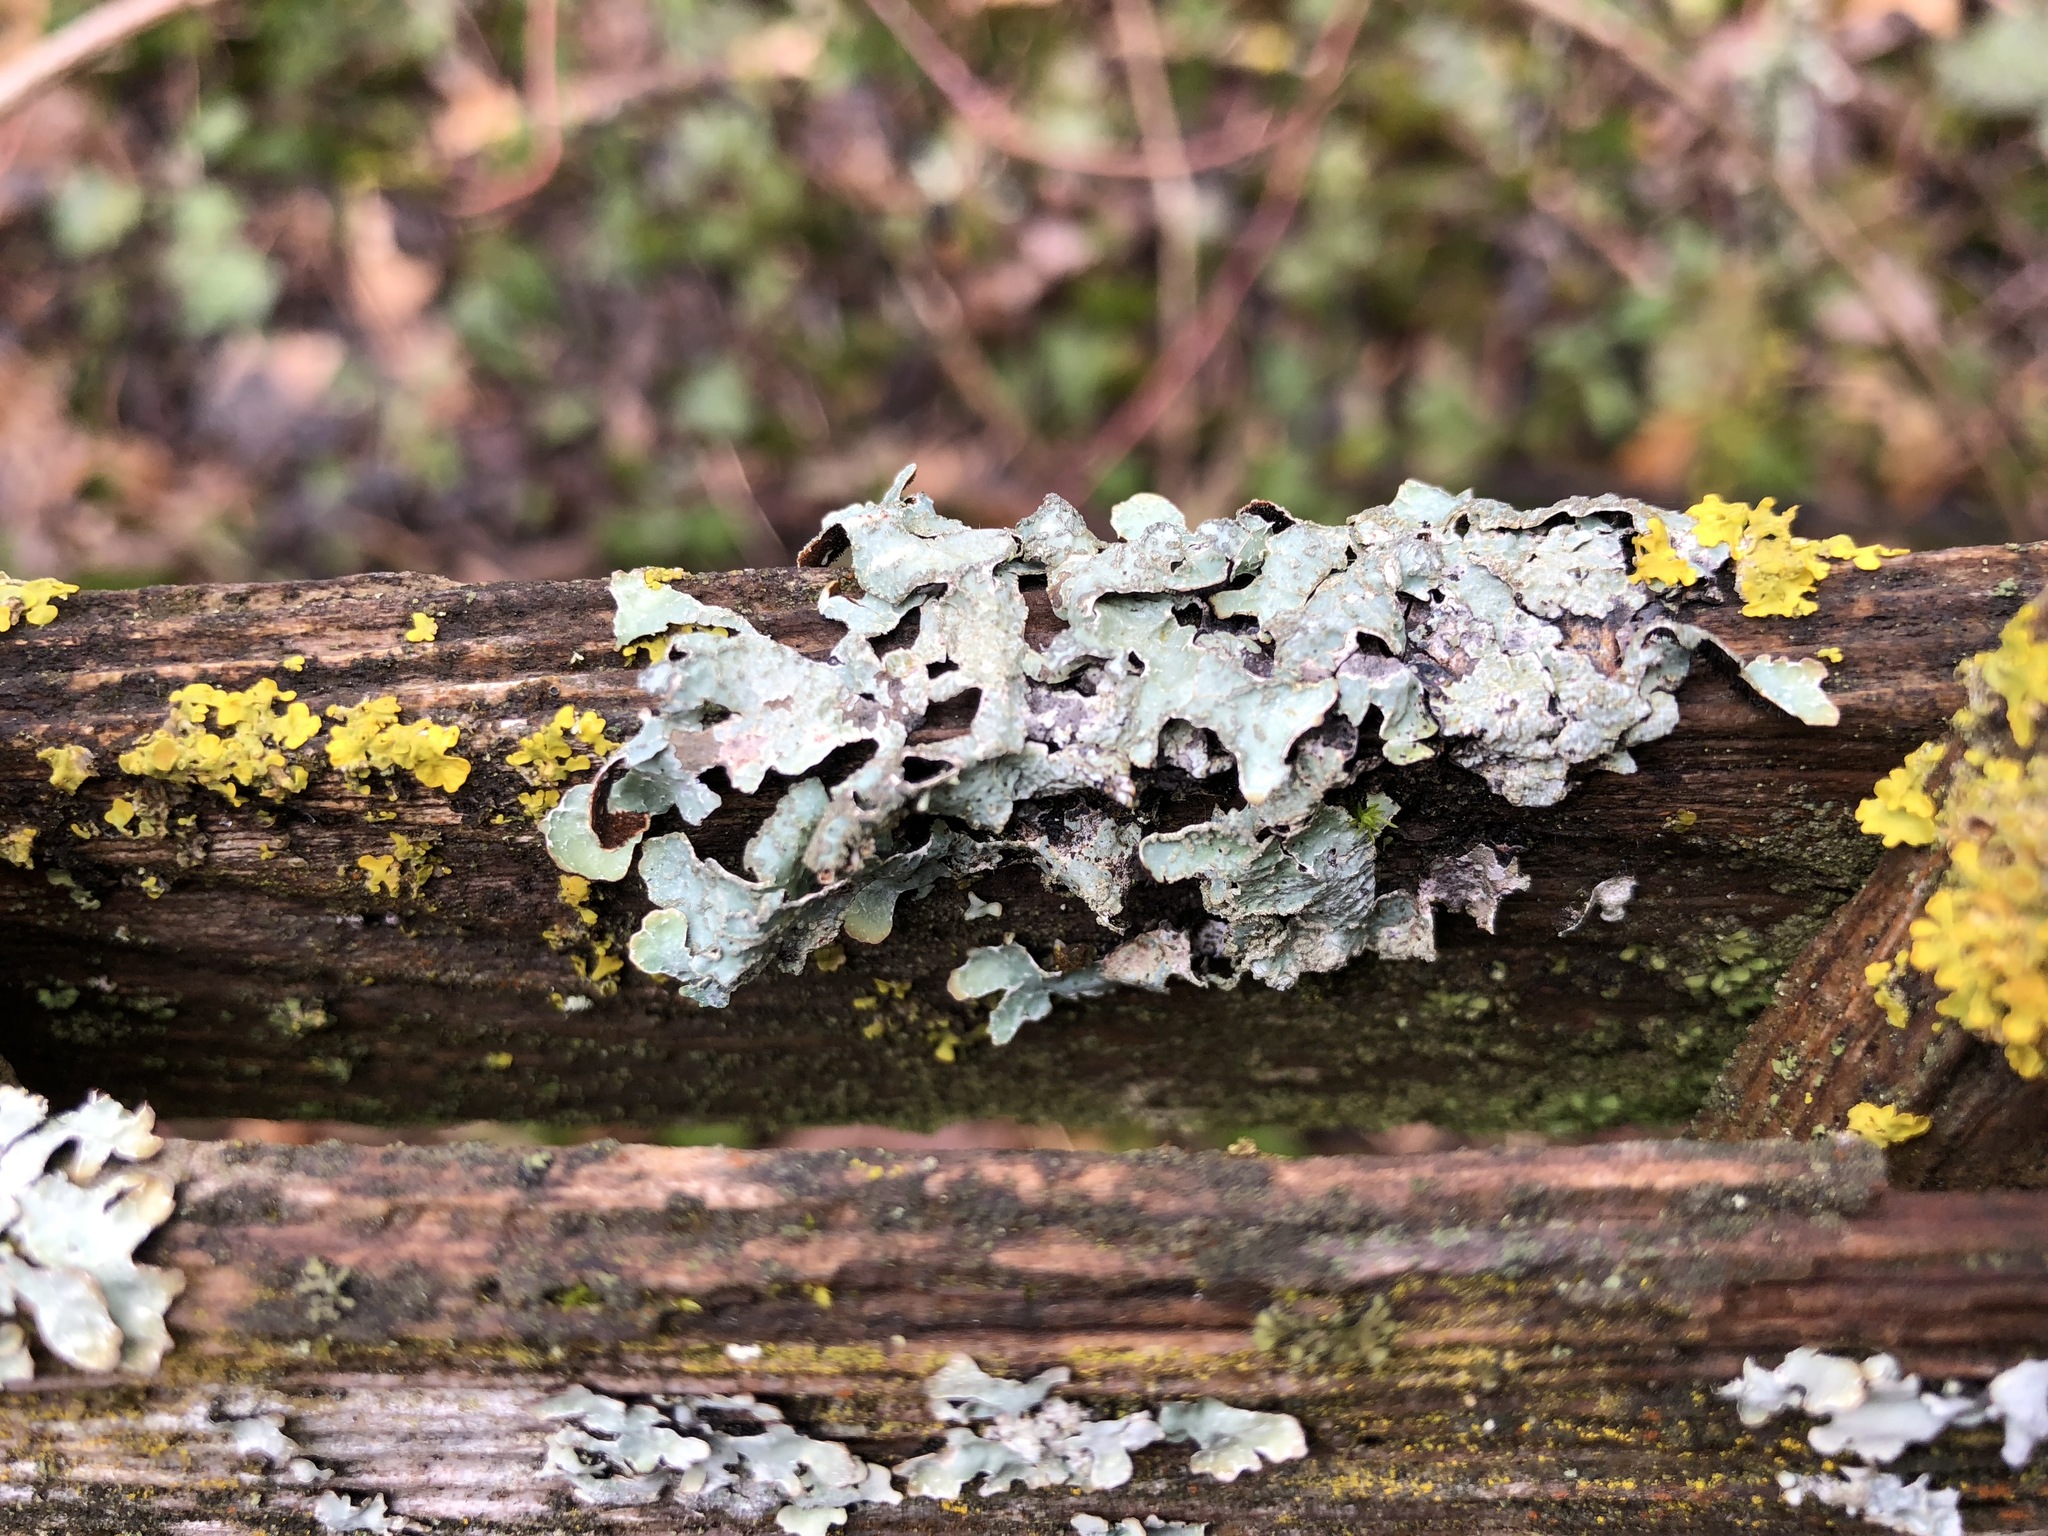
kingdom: Fungi
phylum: Ascomycota
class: Lecanoromycetes
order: Lecanorales
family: Parmeliaceae
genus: Parmelia
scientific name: Parmelia sulcata
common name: Netted shield lichen
